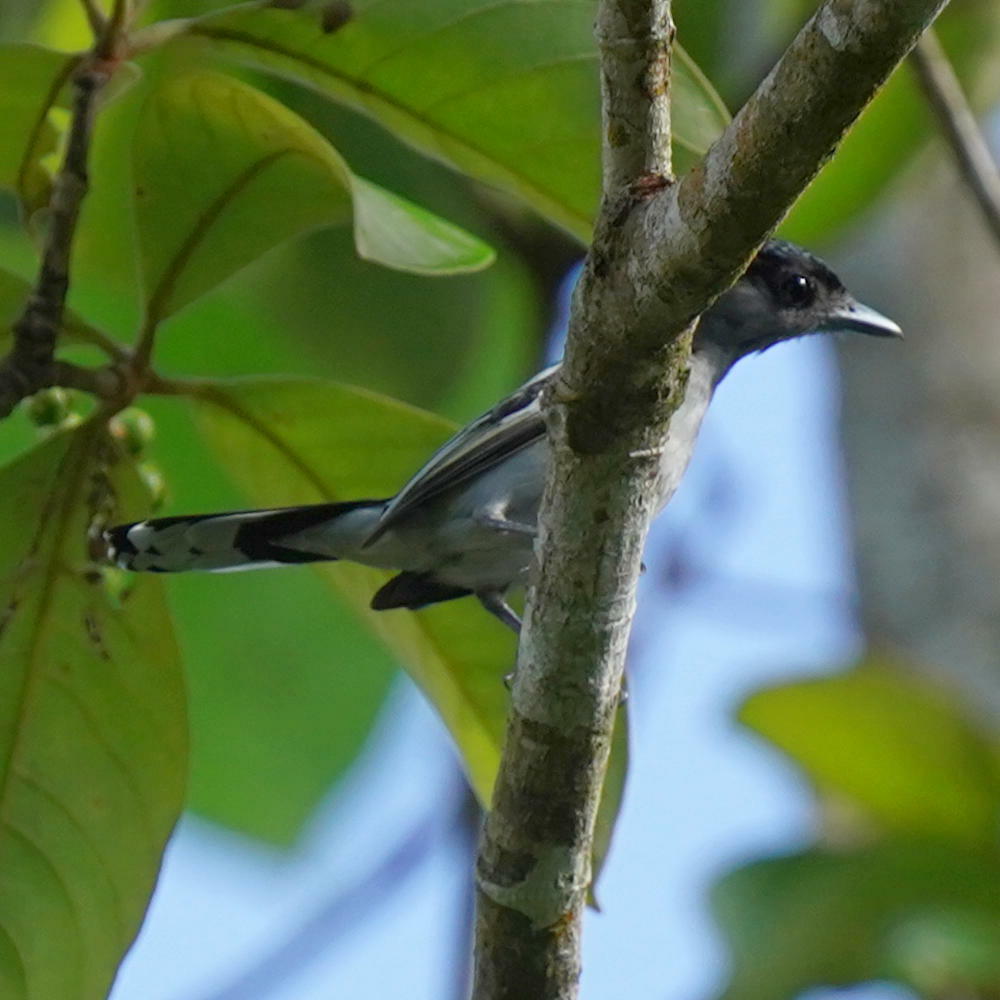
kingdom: Animalia
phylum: Chordata
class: Aves
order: Passeriformes
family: Cotingidae
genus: Pachyramphus
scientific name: Pachyramphus polychopterus
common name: White-winged becard
